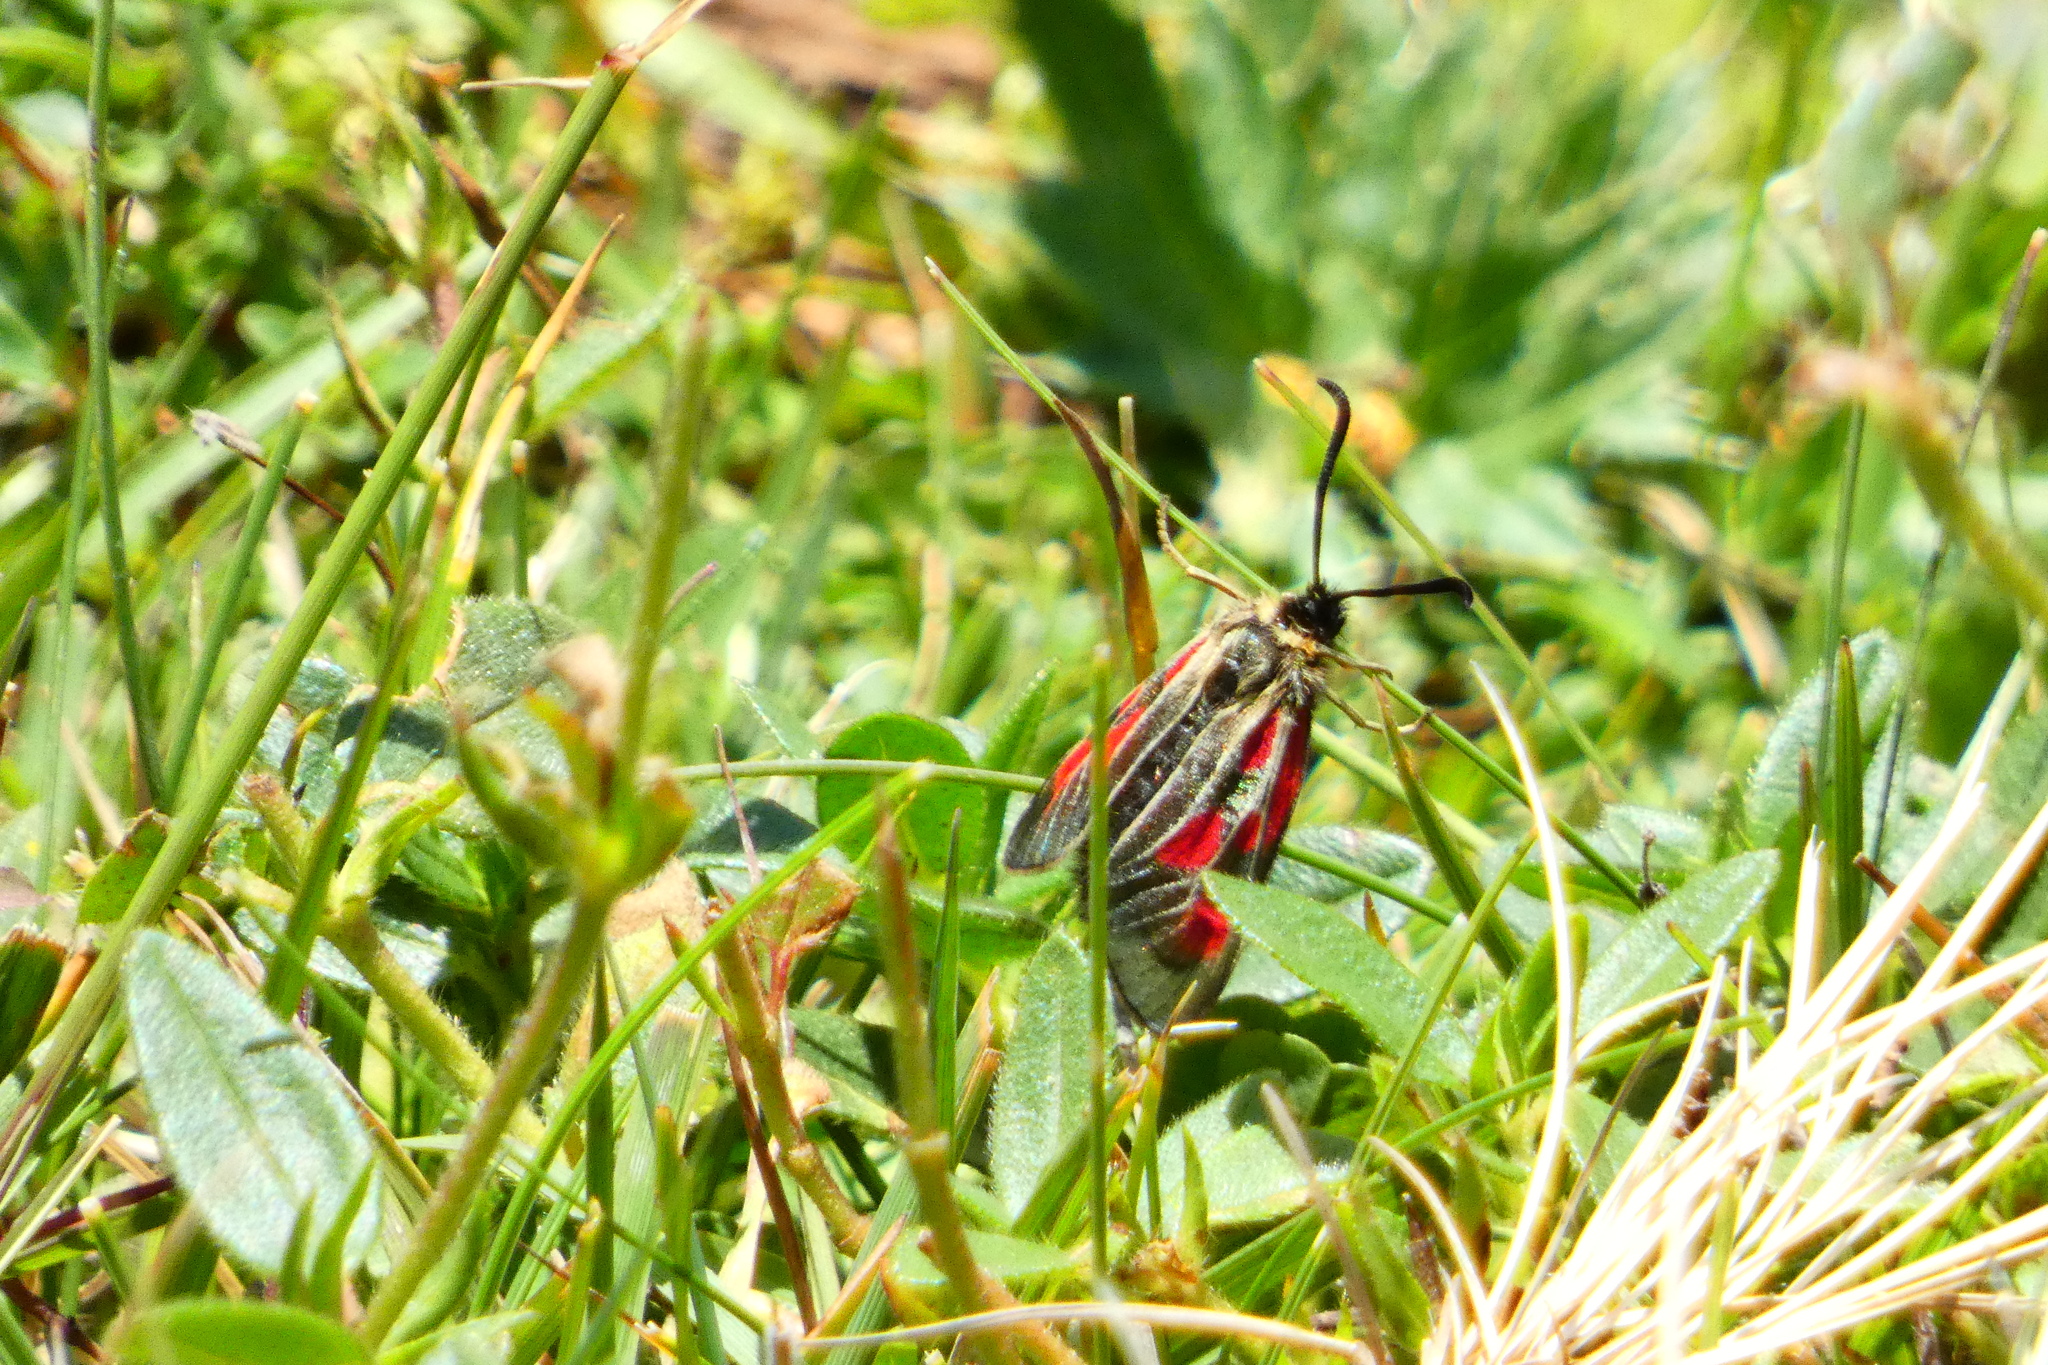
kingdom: Animalia
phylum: Arthropoda
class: Insecta
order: Lepidoptera
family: Zygaenidae
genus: Zygaena
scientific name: Zygaena exulans
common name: Scotch burnet
